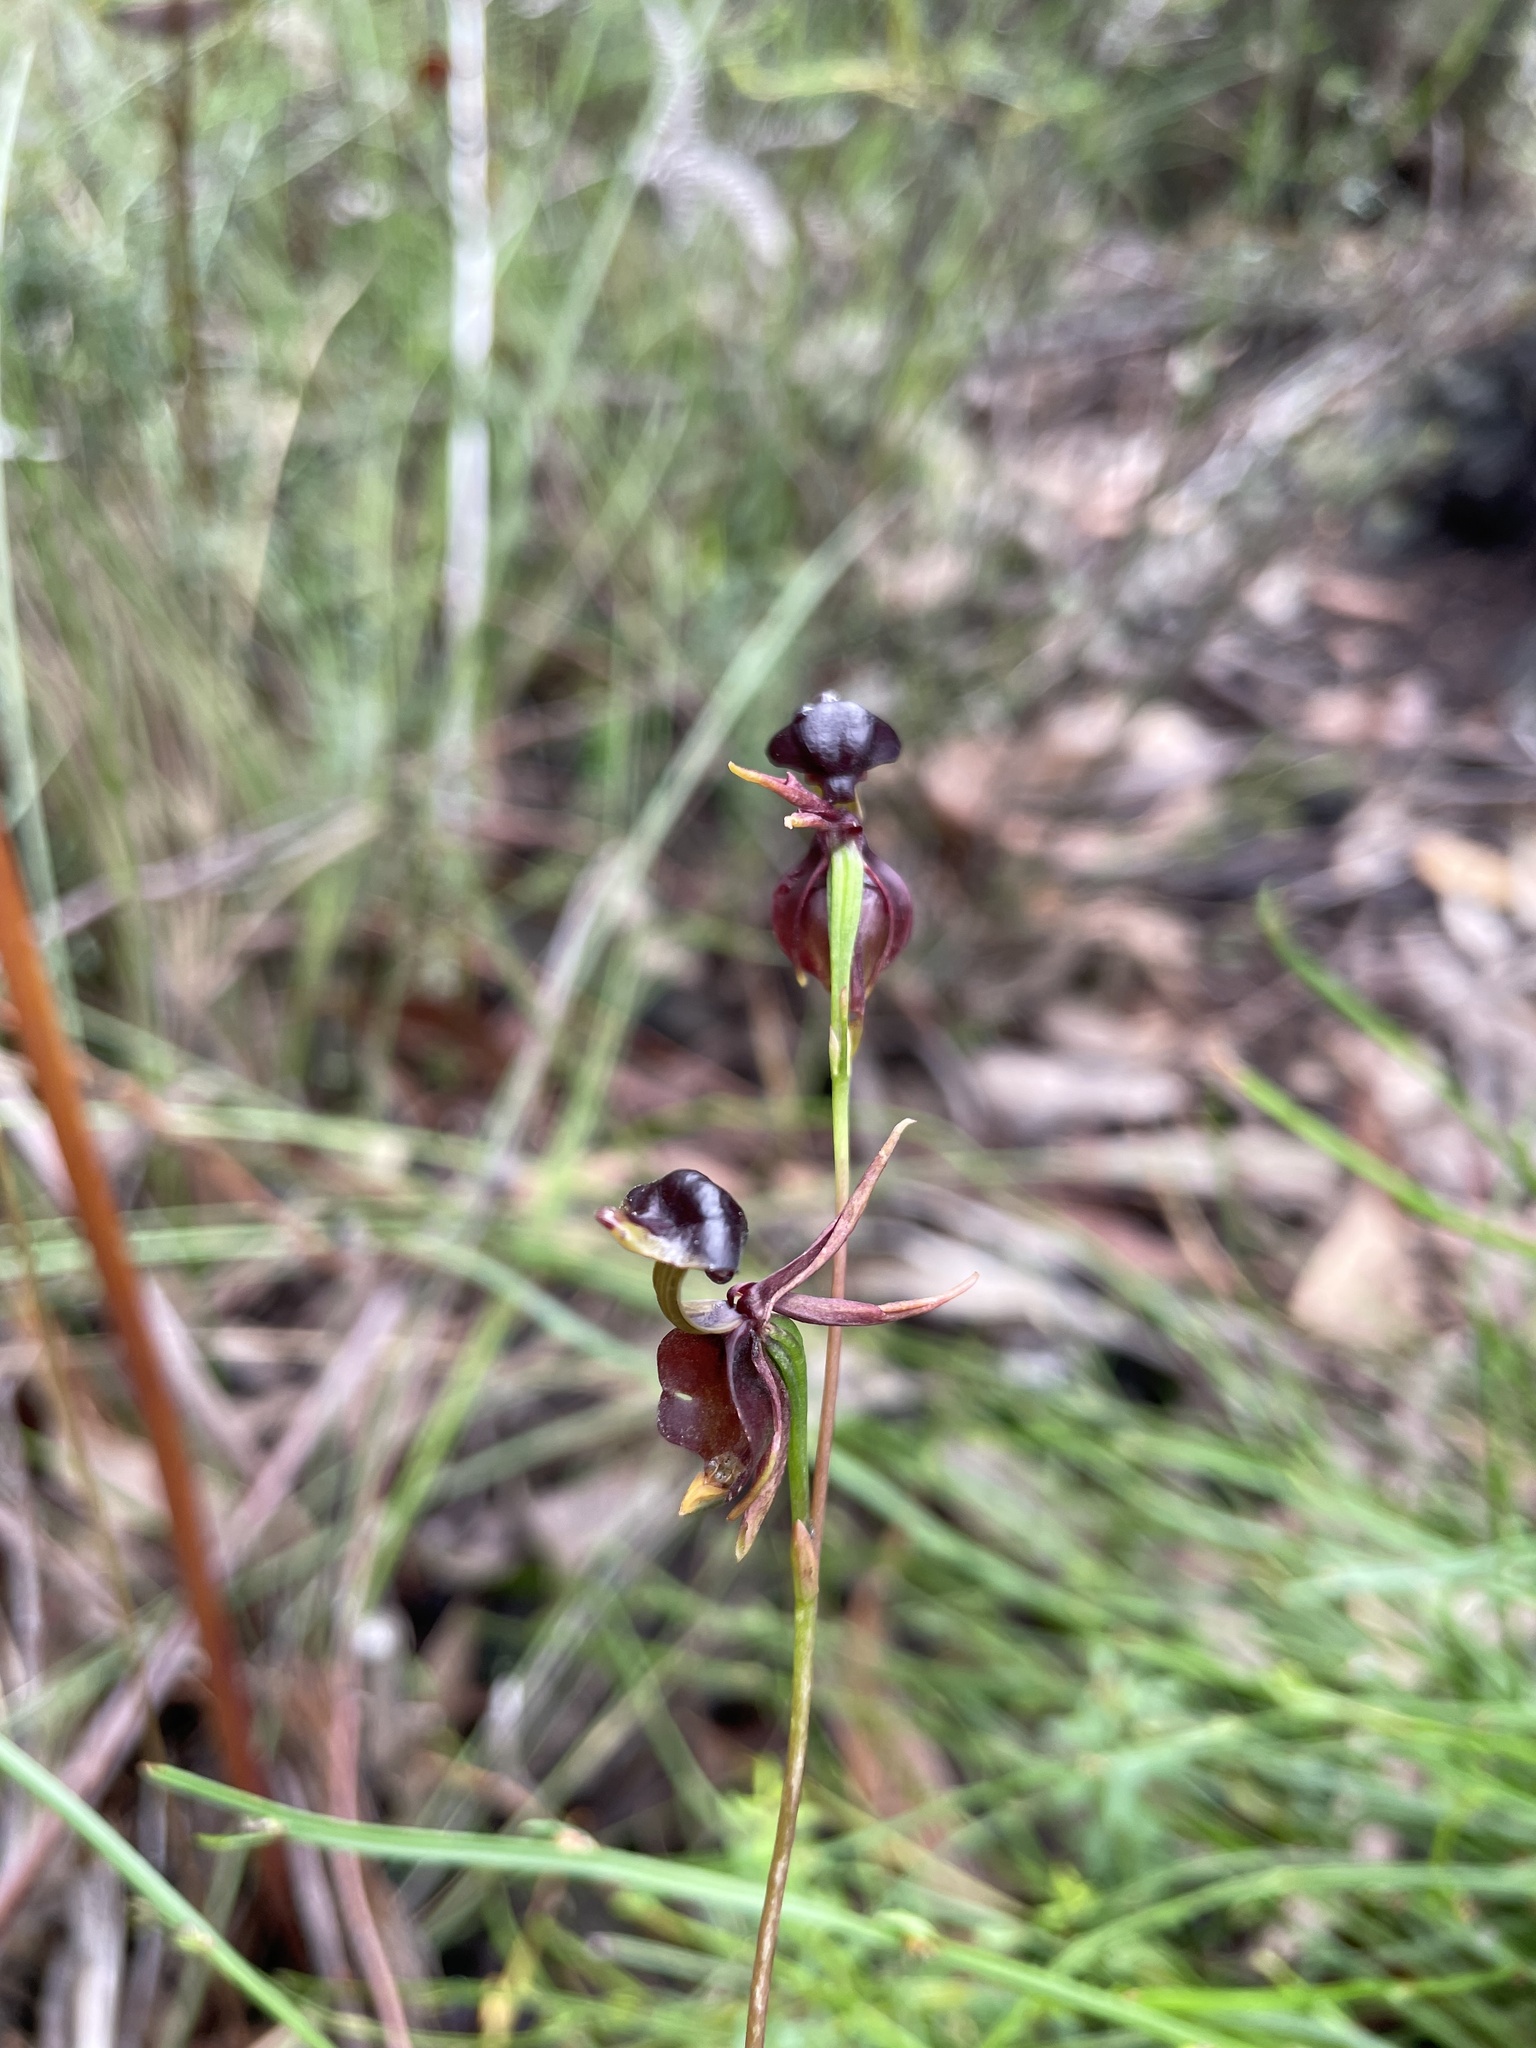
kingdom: Plantae
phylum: Tracheophyta
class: Liliopsida
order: Asparagales
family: Orchidaceae
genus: Caleana
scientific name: Caleana major
